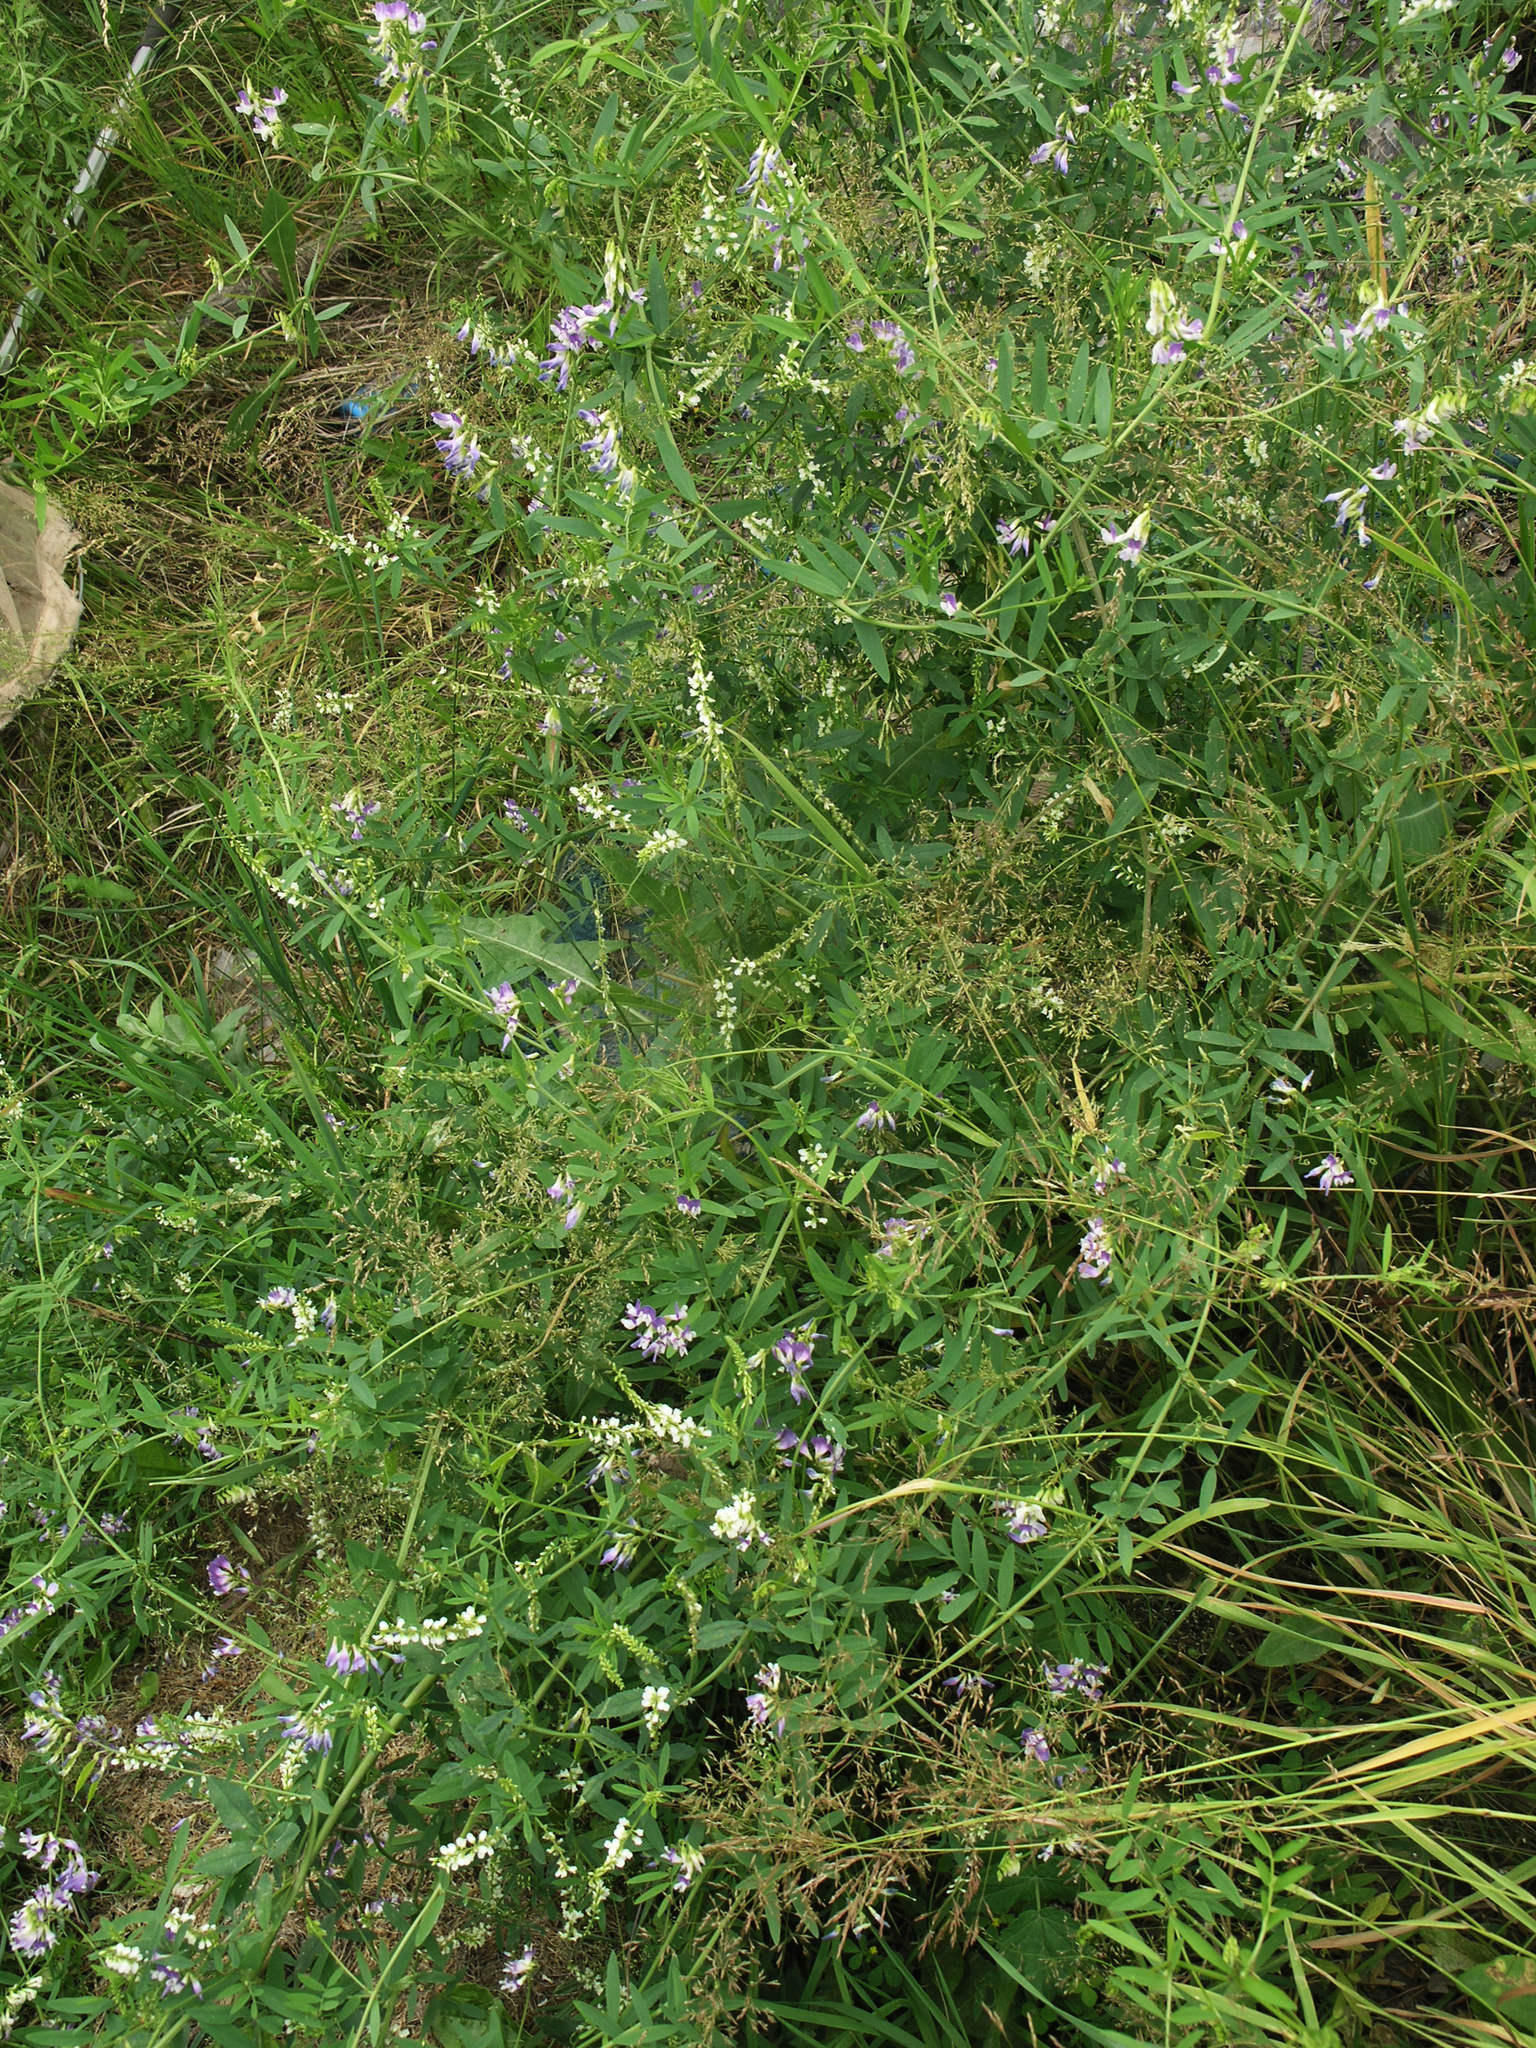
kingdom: Plantae
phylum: Tracheophyta
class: Magnoliopsida
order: Fabales
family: Fabaceae
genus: Melilotus
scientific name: Melilotus albus
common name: White melilot
